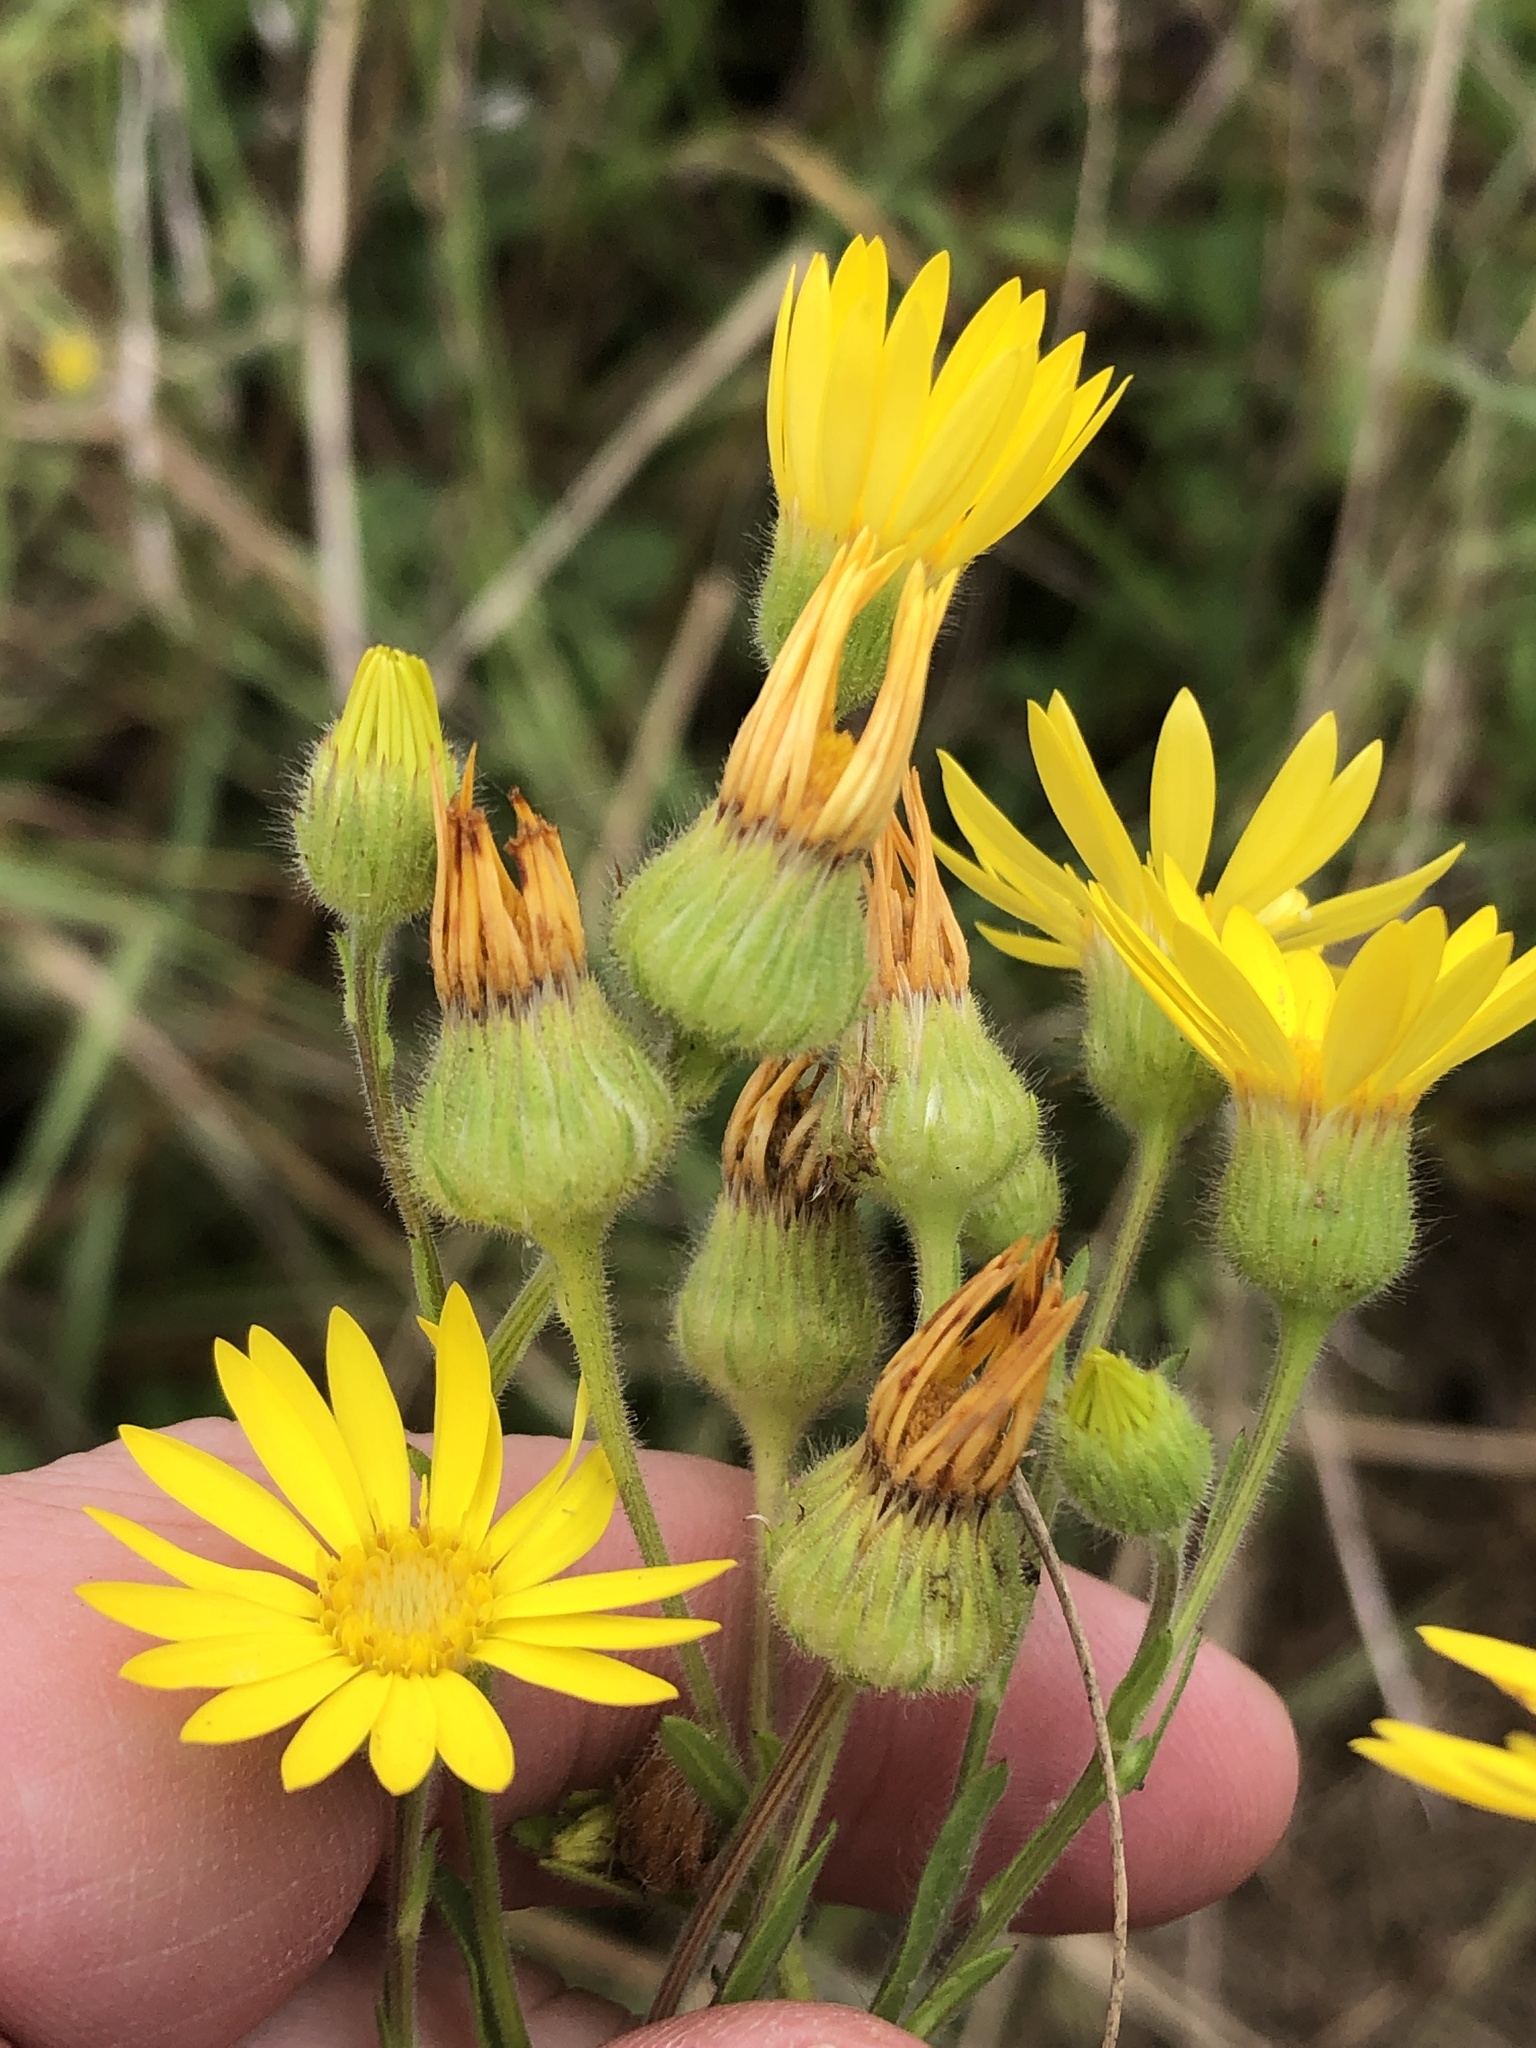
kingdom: Plantae
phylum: Tracheophyta
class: Magnoliopsida
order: Asterales
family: Asteraceae
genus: Bradburia
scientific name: Bradburia pilosa
